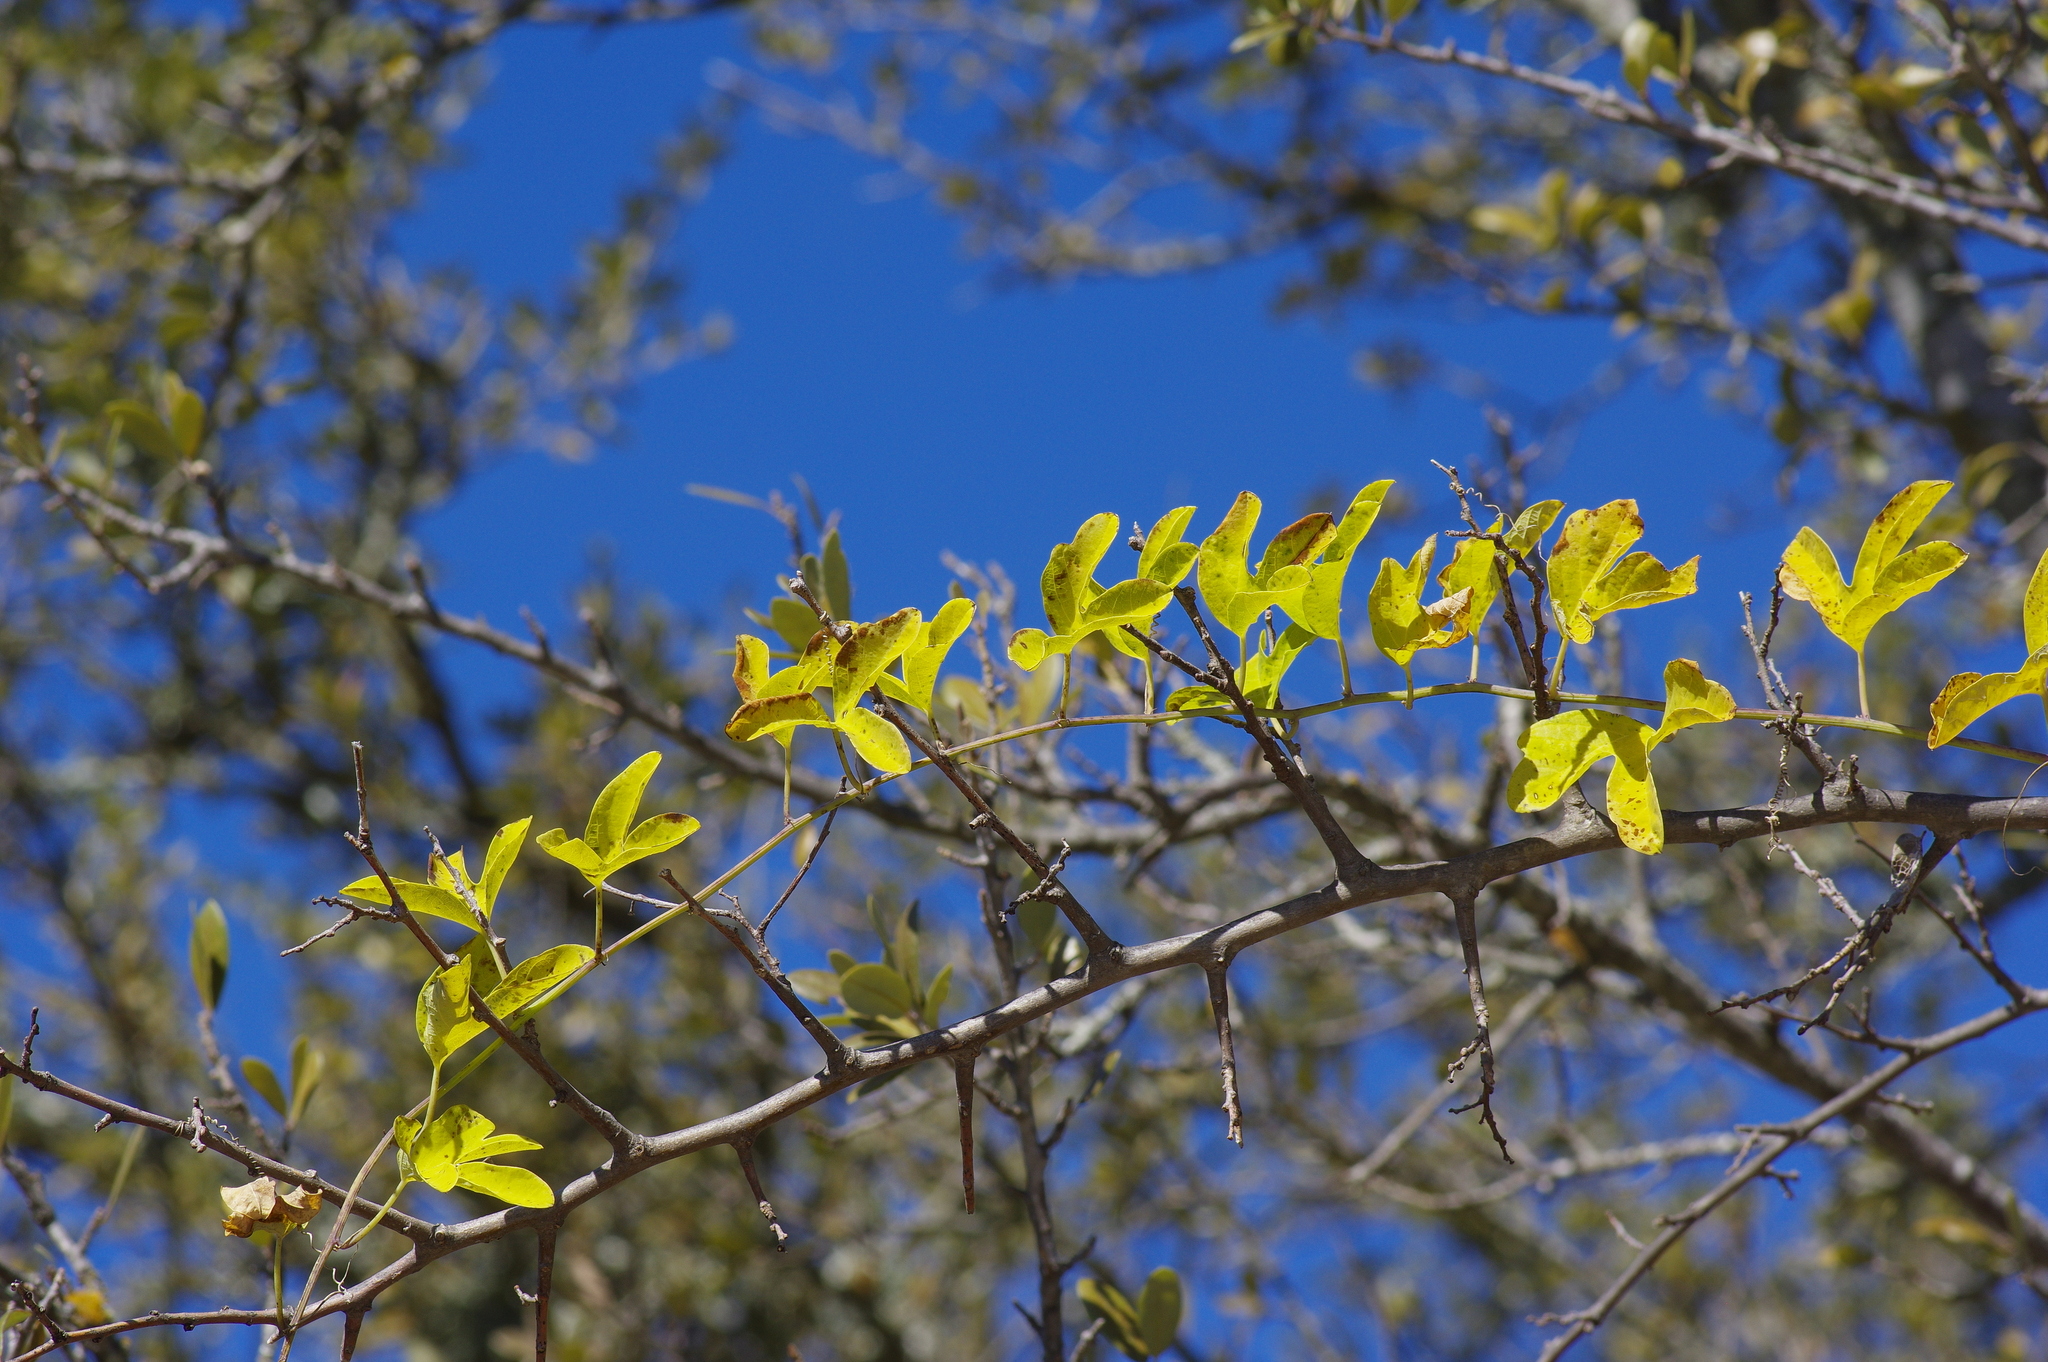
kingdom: Plantae
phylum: Tracheophyta
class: Magnoliopsida
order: Malpighiales
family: Passifloraceae
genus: Passiflora
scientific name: Passiflora affinis
